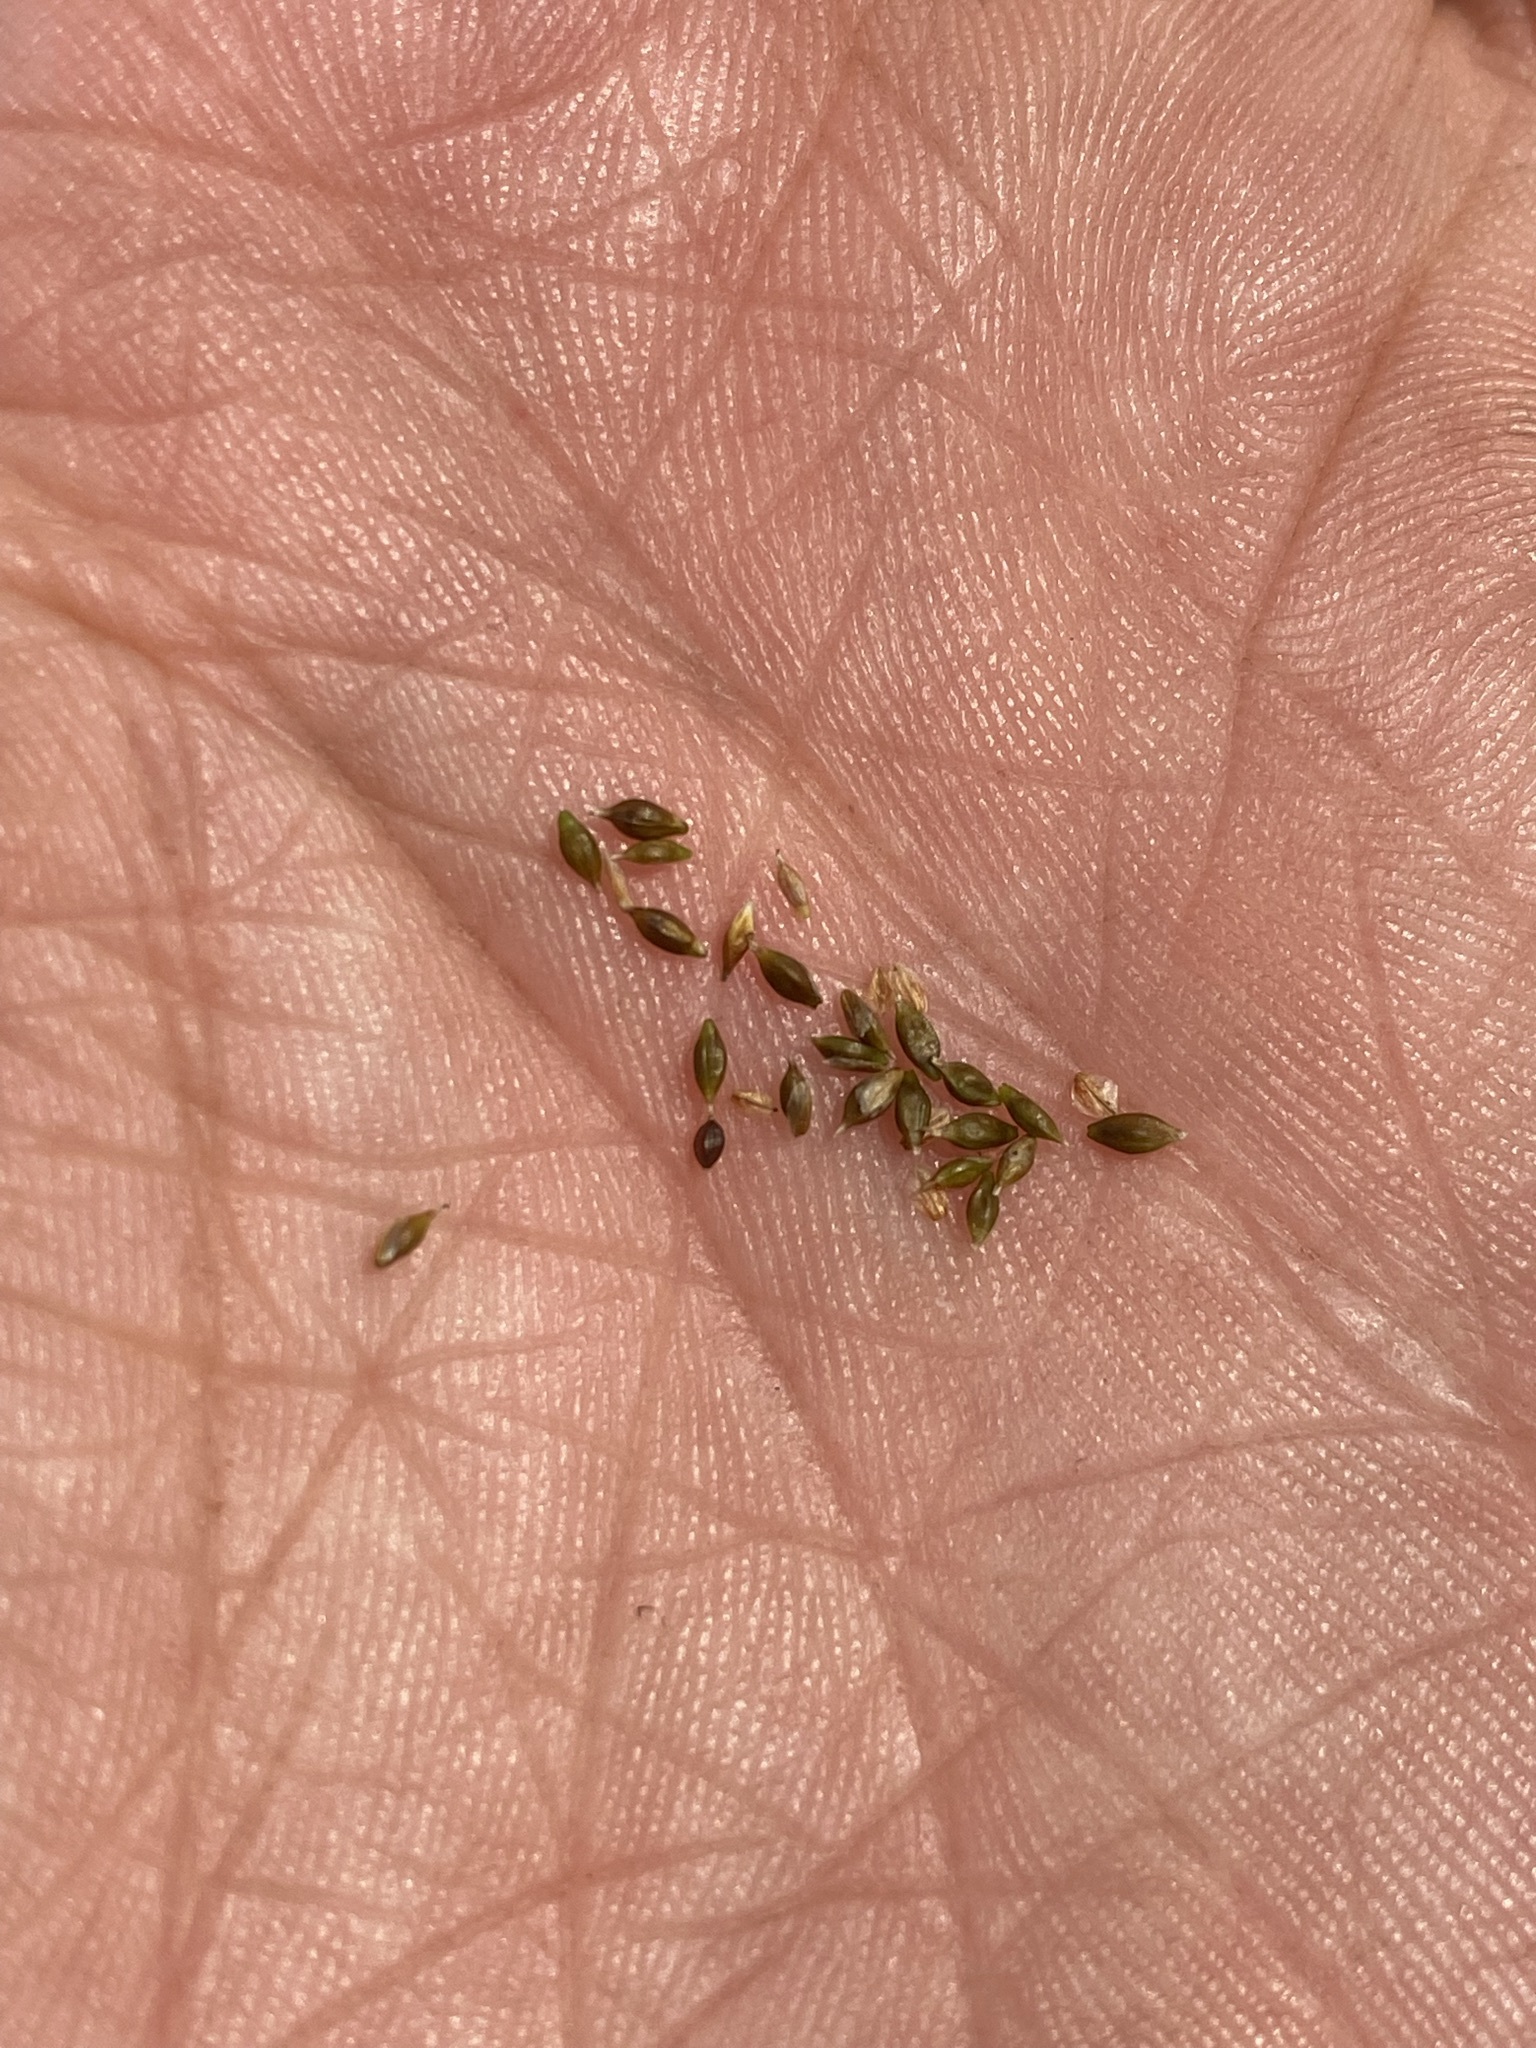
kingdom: Plantae
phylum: Tracheophyta
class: Liliopsida
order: Poales
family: Cyperaceae
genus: Carex
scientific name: Carex capillaris
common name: Hair sedge
